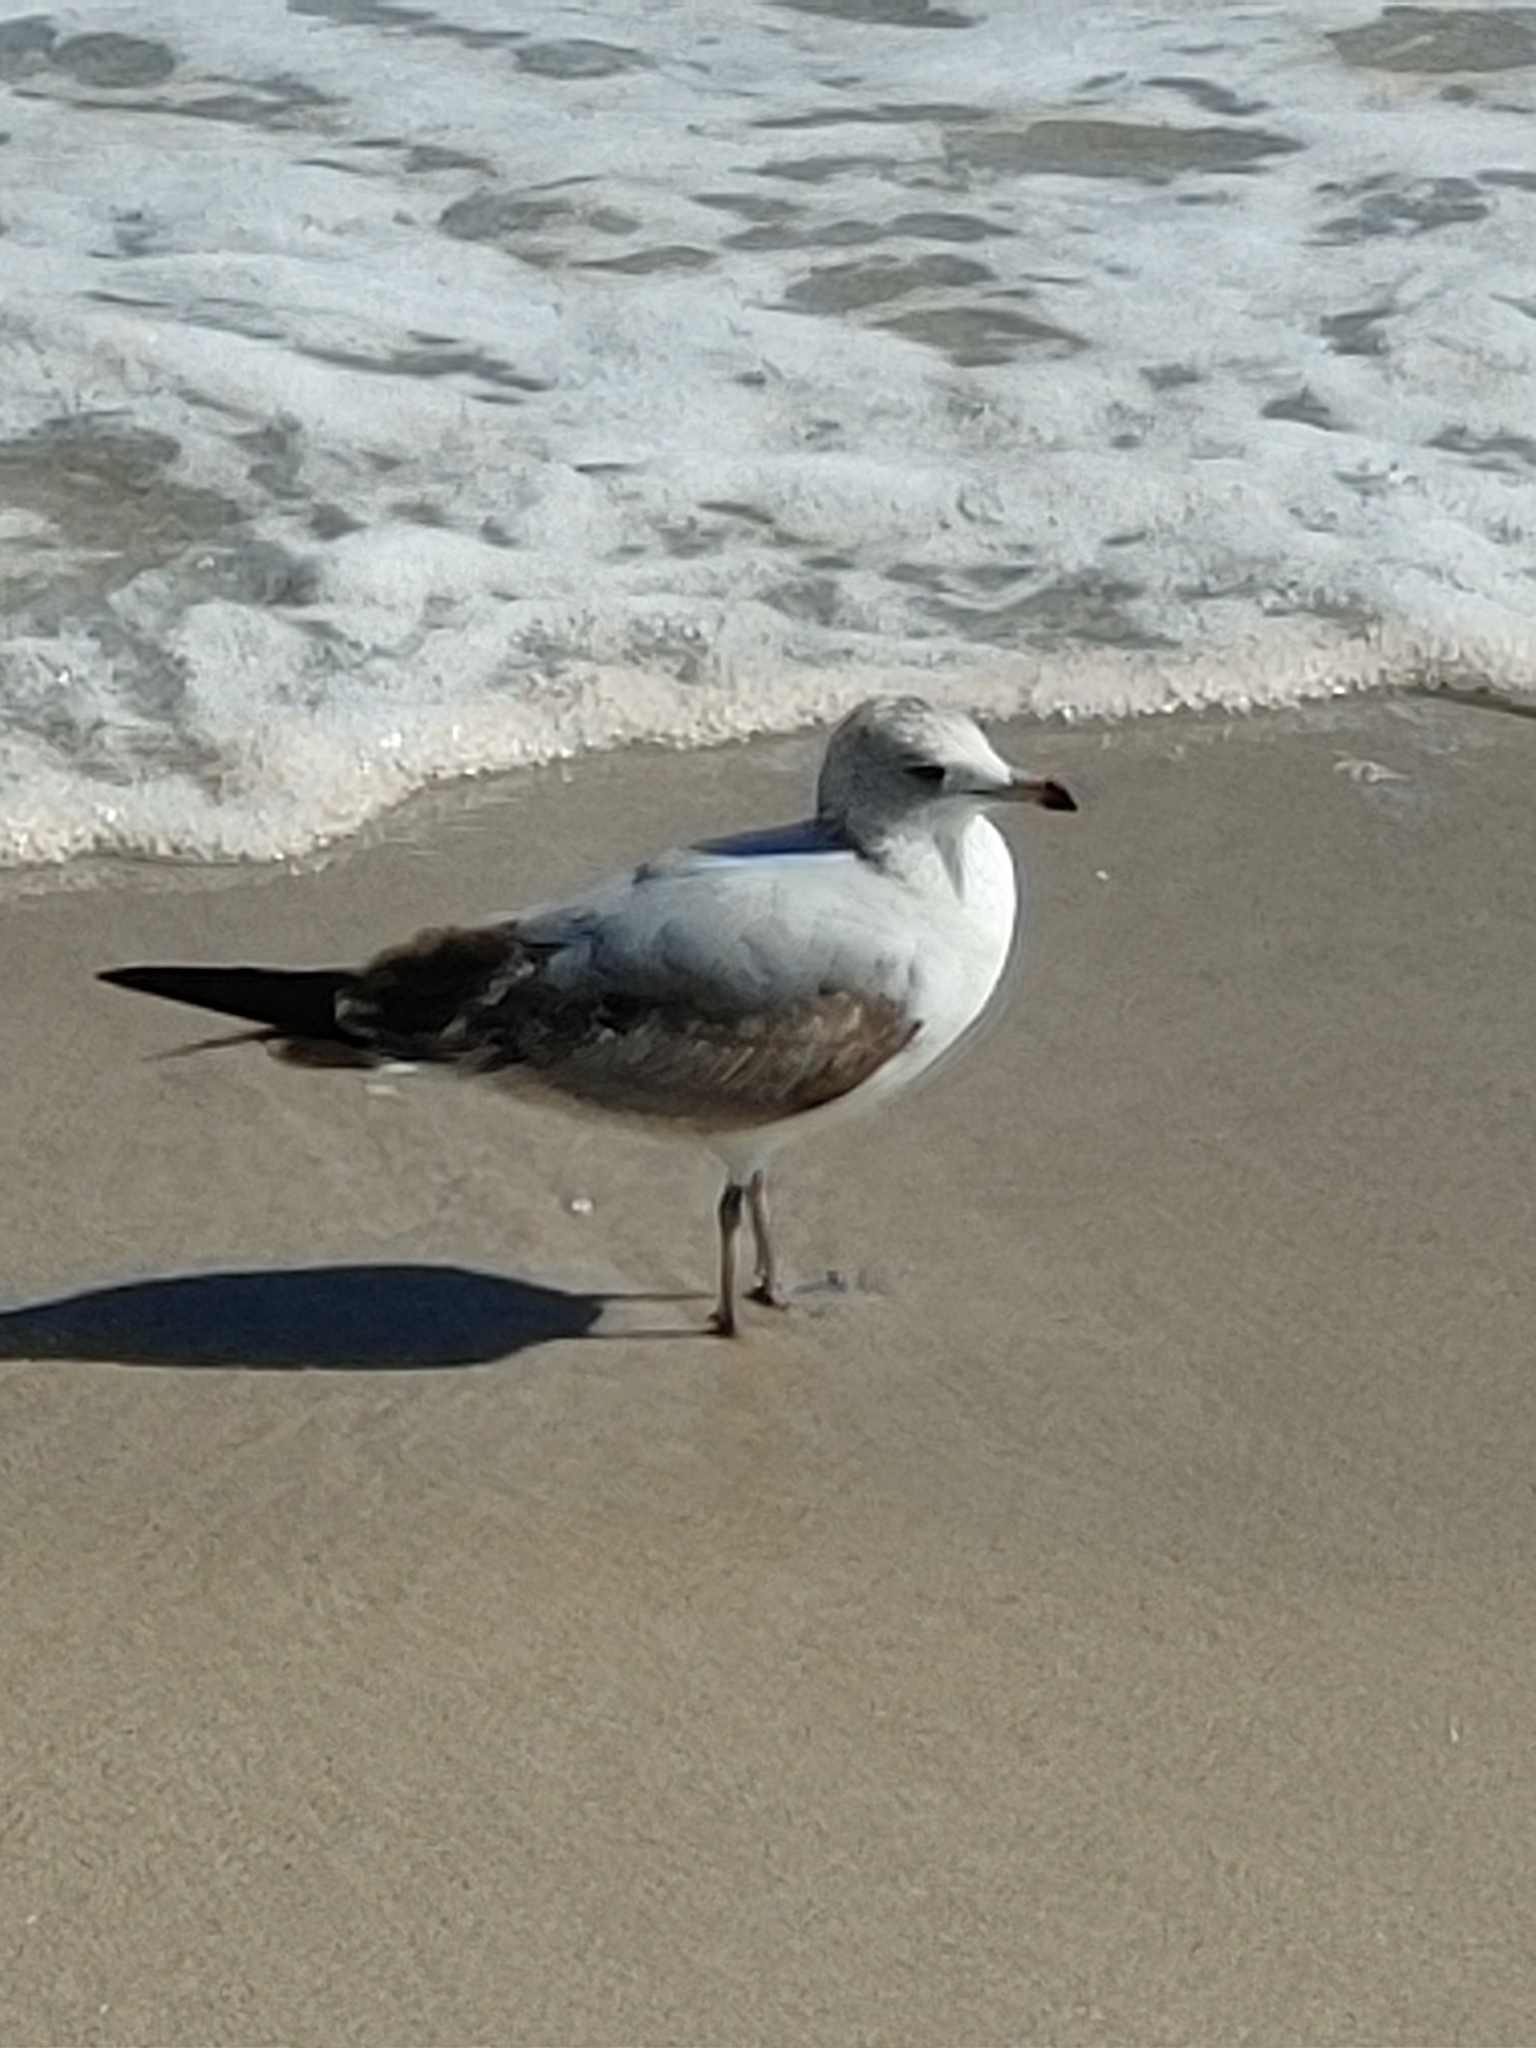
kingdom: Animalia
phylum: Chordata
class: Aves
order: Charadriiformes
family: Laridae
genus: Larus
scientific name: Larus delawarensis
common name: Ring-billed gull
